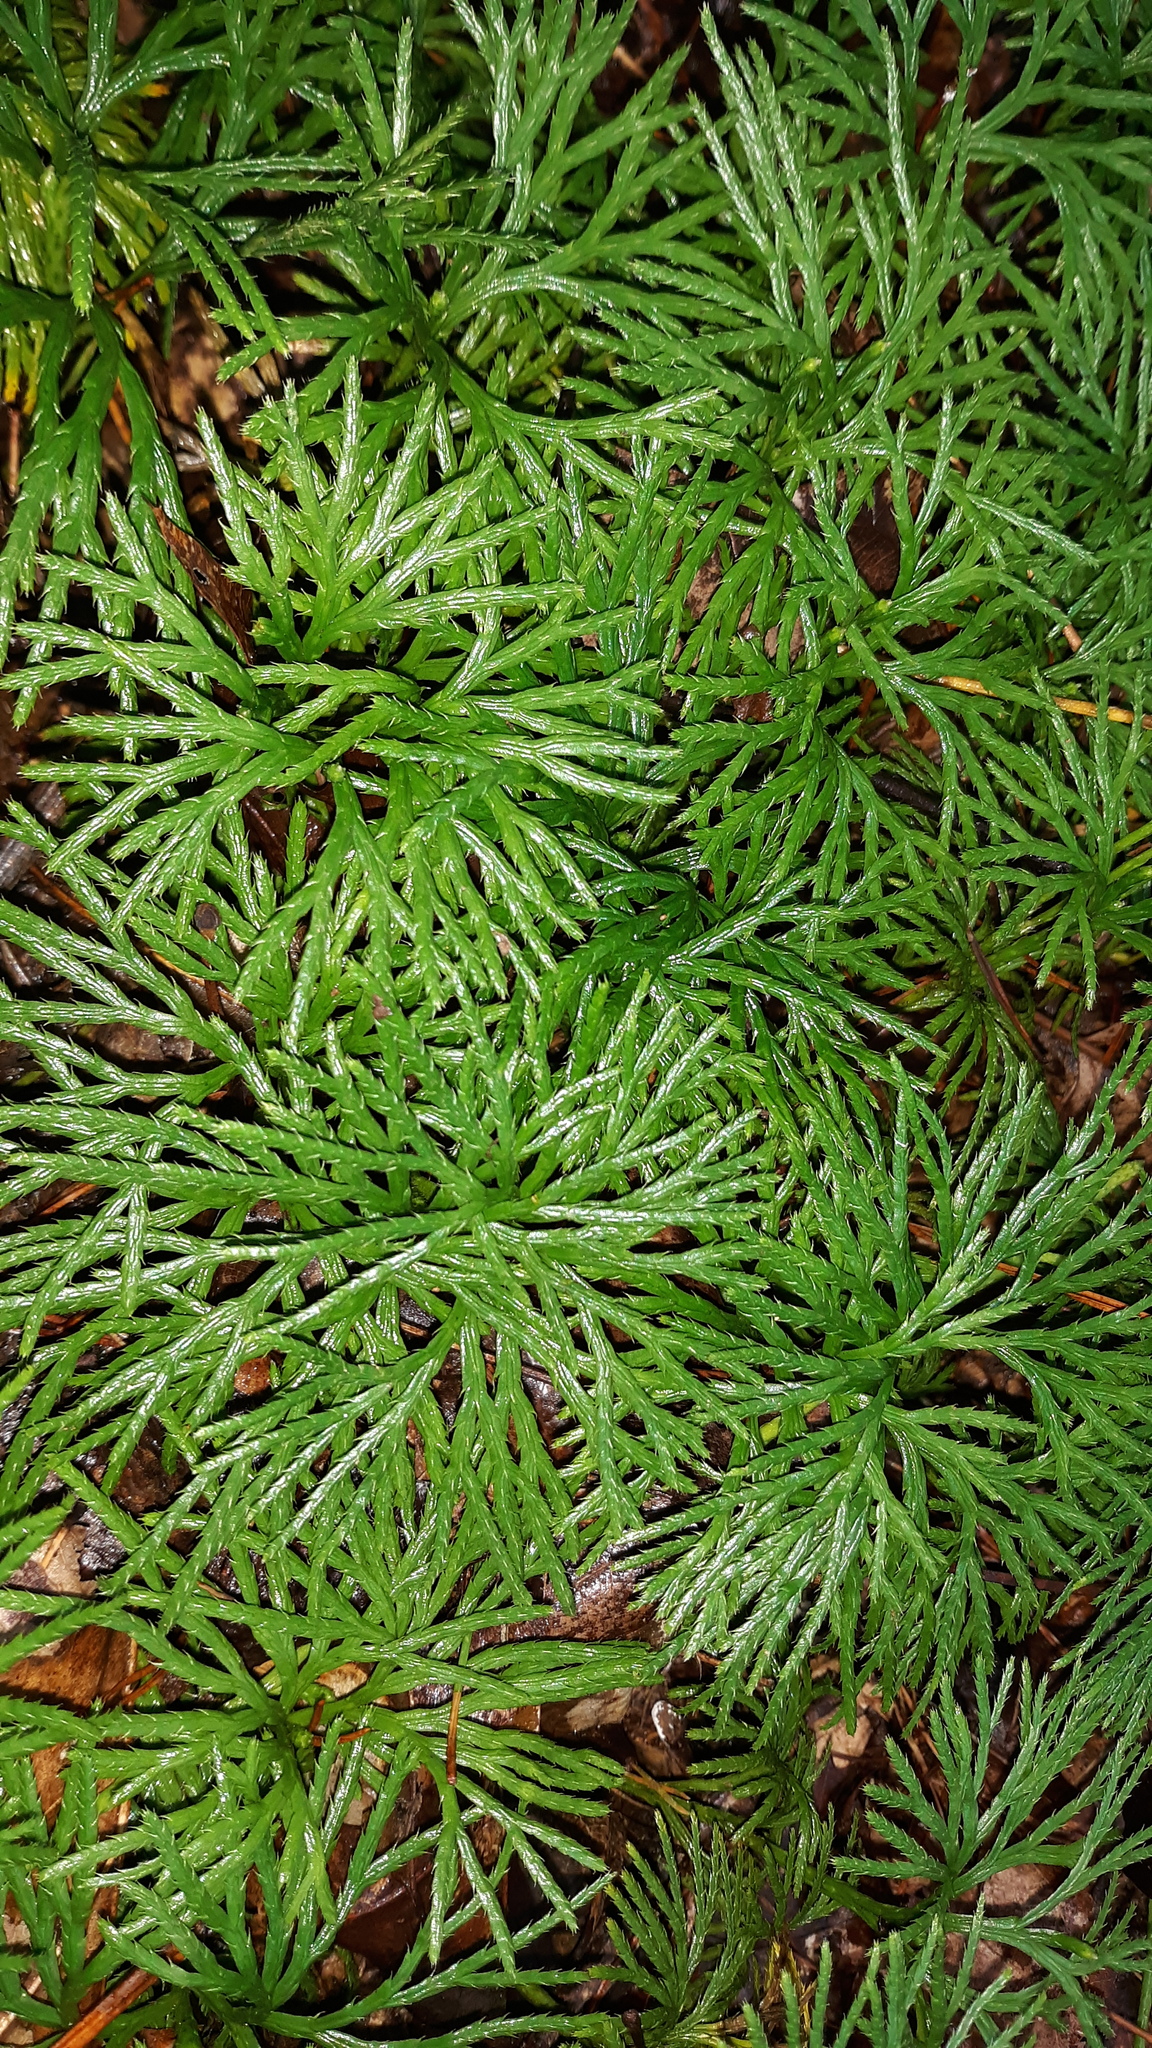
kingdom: Plantae
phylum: Tracheophyta
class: Lycopodiopsida
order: Lycopodiales
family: Lycopodiaceae
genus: Diphasiastrum
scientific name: Diphasiastrum digitatum
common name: Southern running-pine
